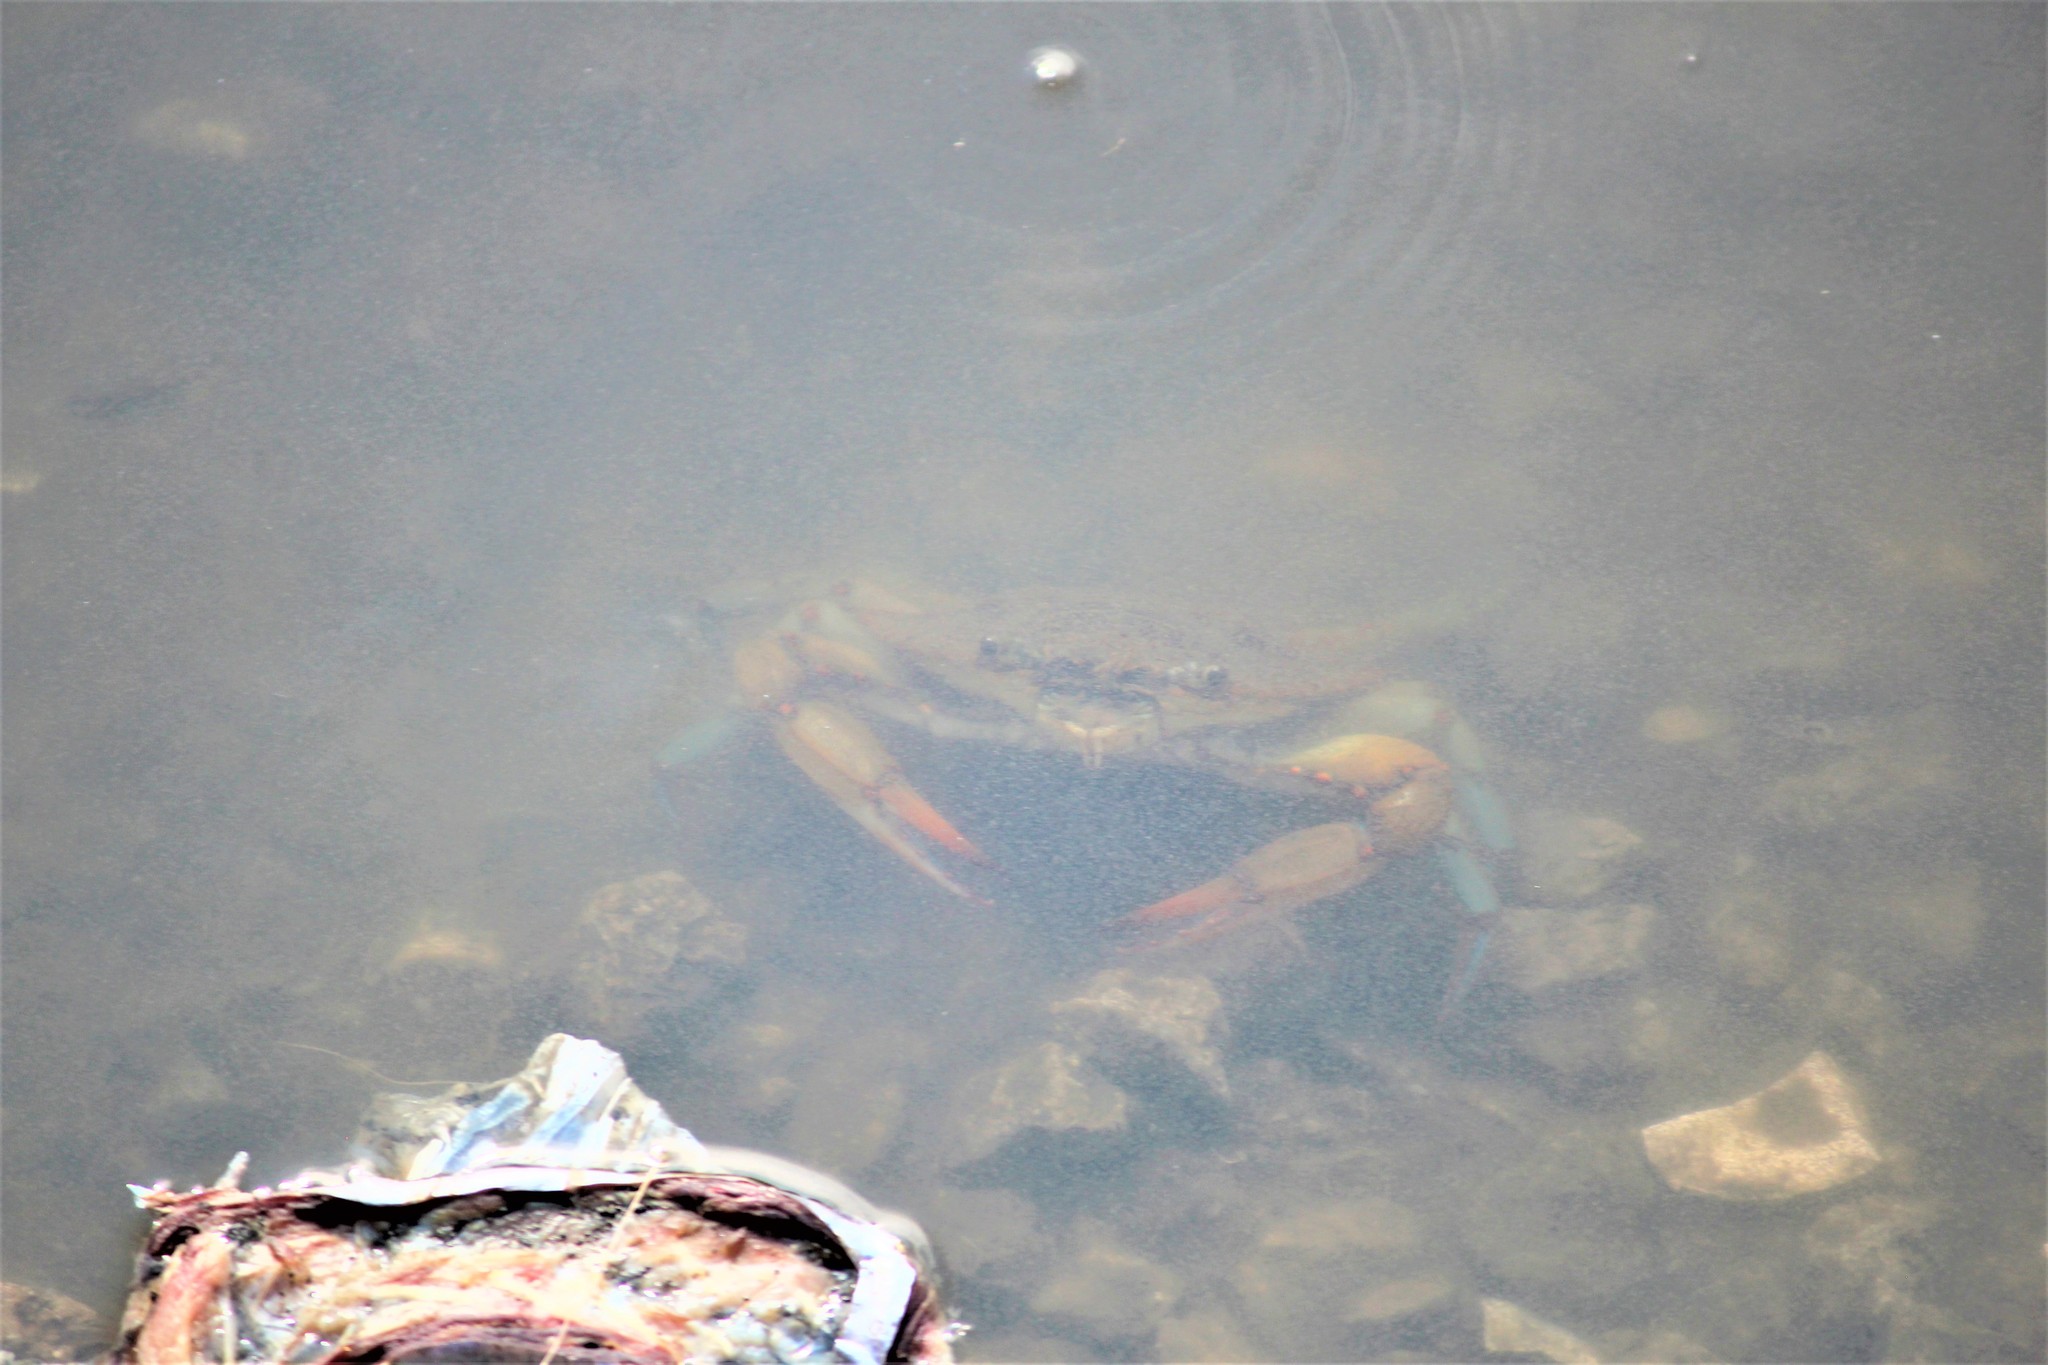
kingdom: Animalia
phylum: Arthropoda
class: Malacostraca
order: Decapoda
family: Portunidae
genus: Callinectes
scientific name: Callinectes sapidus
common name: Blue crab
